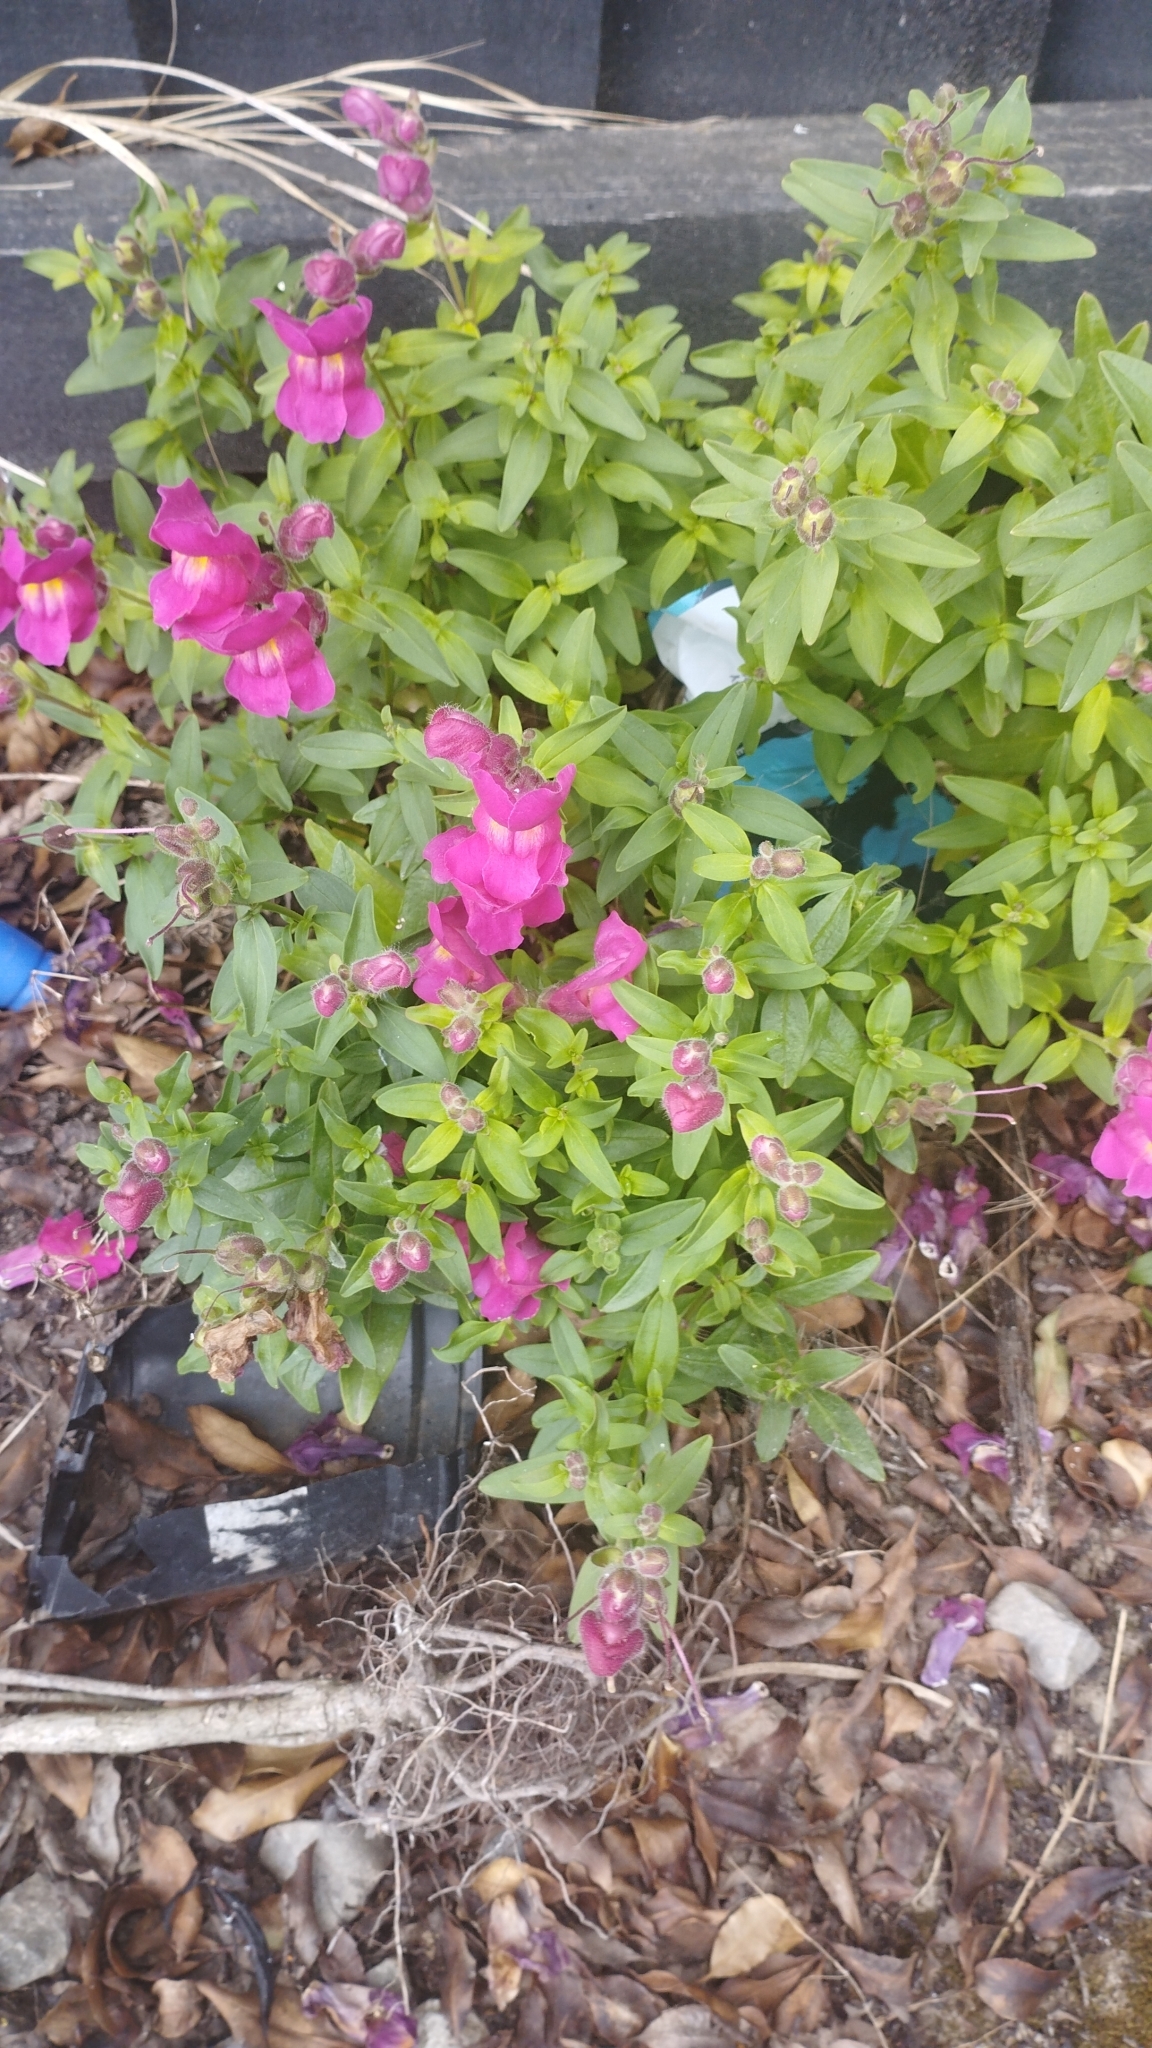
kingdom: Plantae
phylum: Tracheophyta
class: Magnoliopsida
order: Lamiales
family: Plantaginaceae
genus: Antirrhinum
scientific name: Antirrhinum majus
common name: Snapdragon
